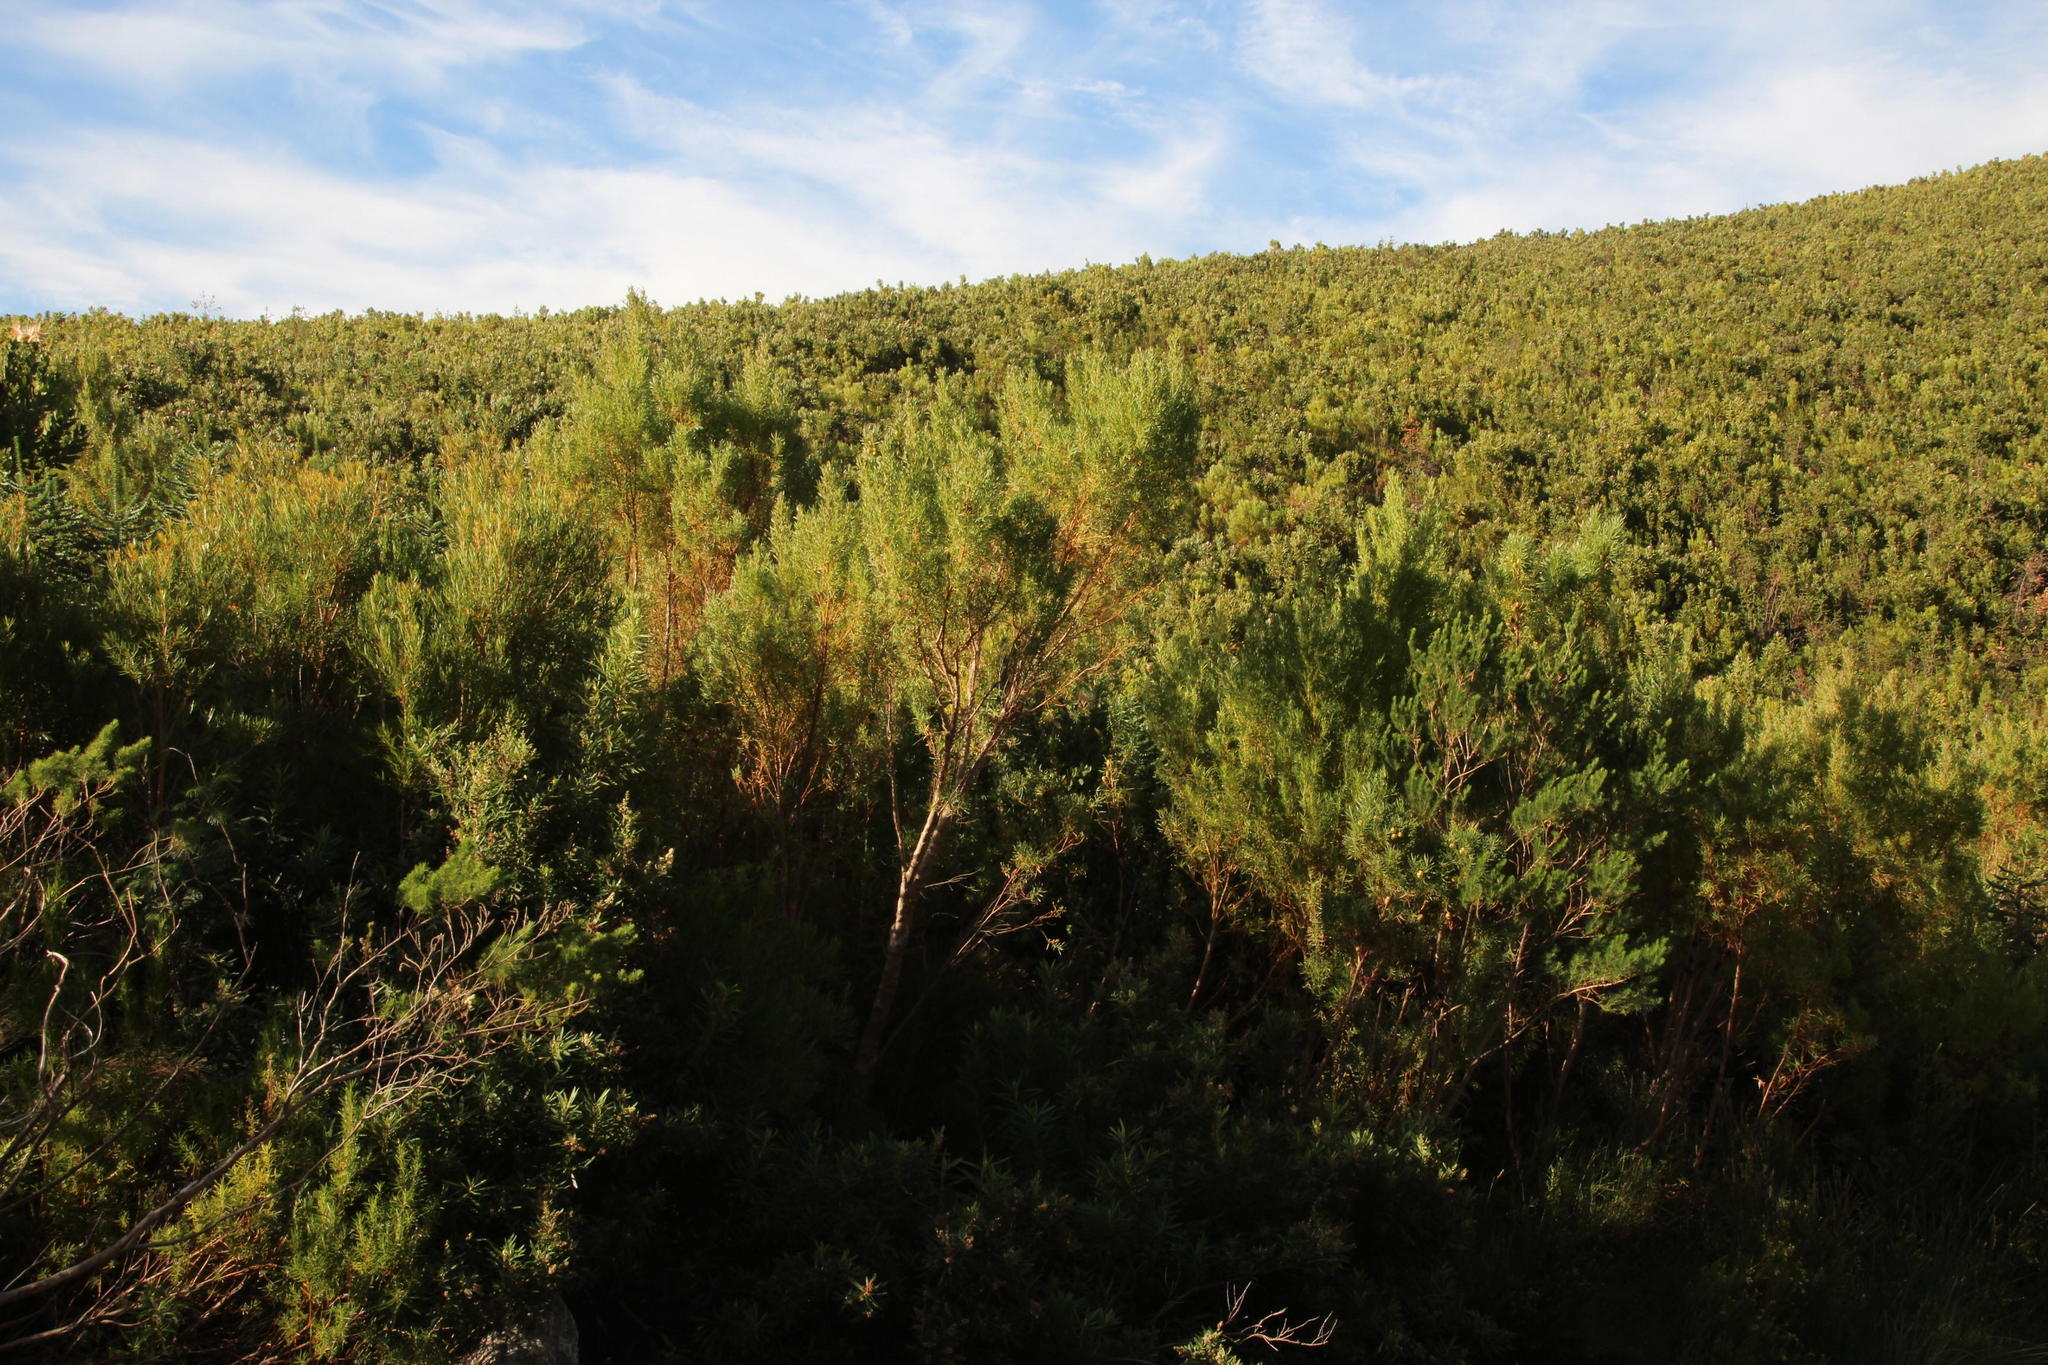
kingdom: Plantae
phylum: Tracheophyta
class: Magnoliopsida
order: Proteales
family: Proteaceae
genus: Leucadendron
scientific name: Leucadendron salicifolium
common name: Common stream conebush
